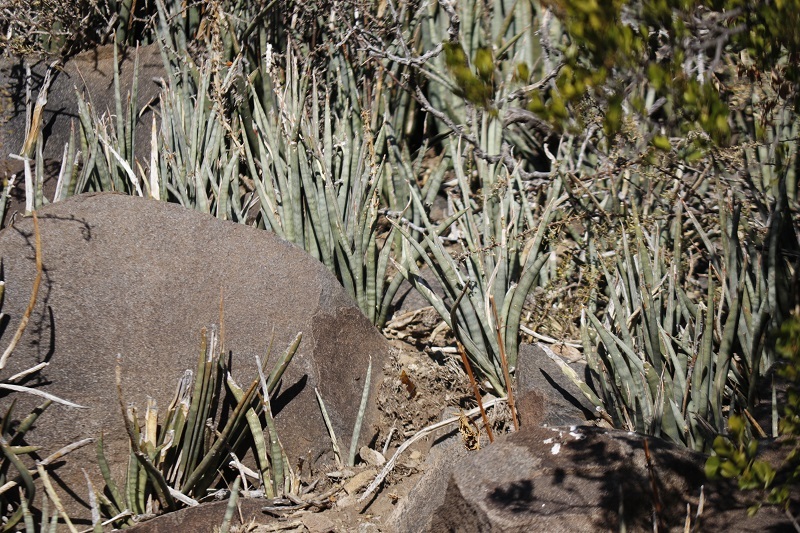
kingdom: Plantae
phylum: Tracheophyta
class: Liliopsida
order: Asparagales
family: Asparagaceae
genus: Dracaena
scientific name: Dracaena aethiopica
